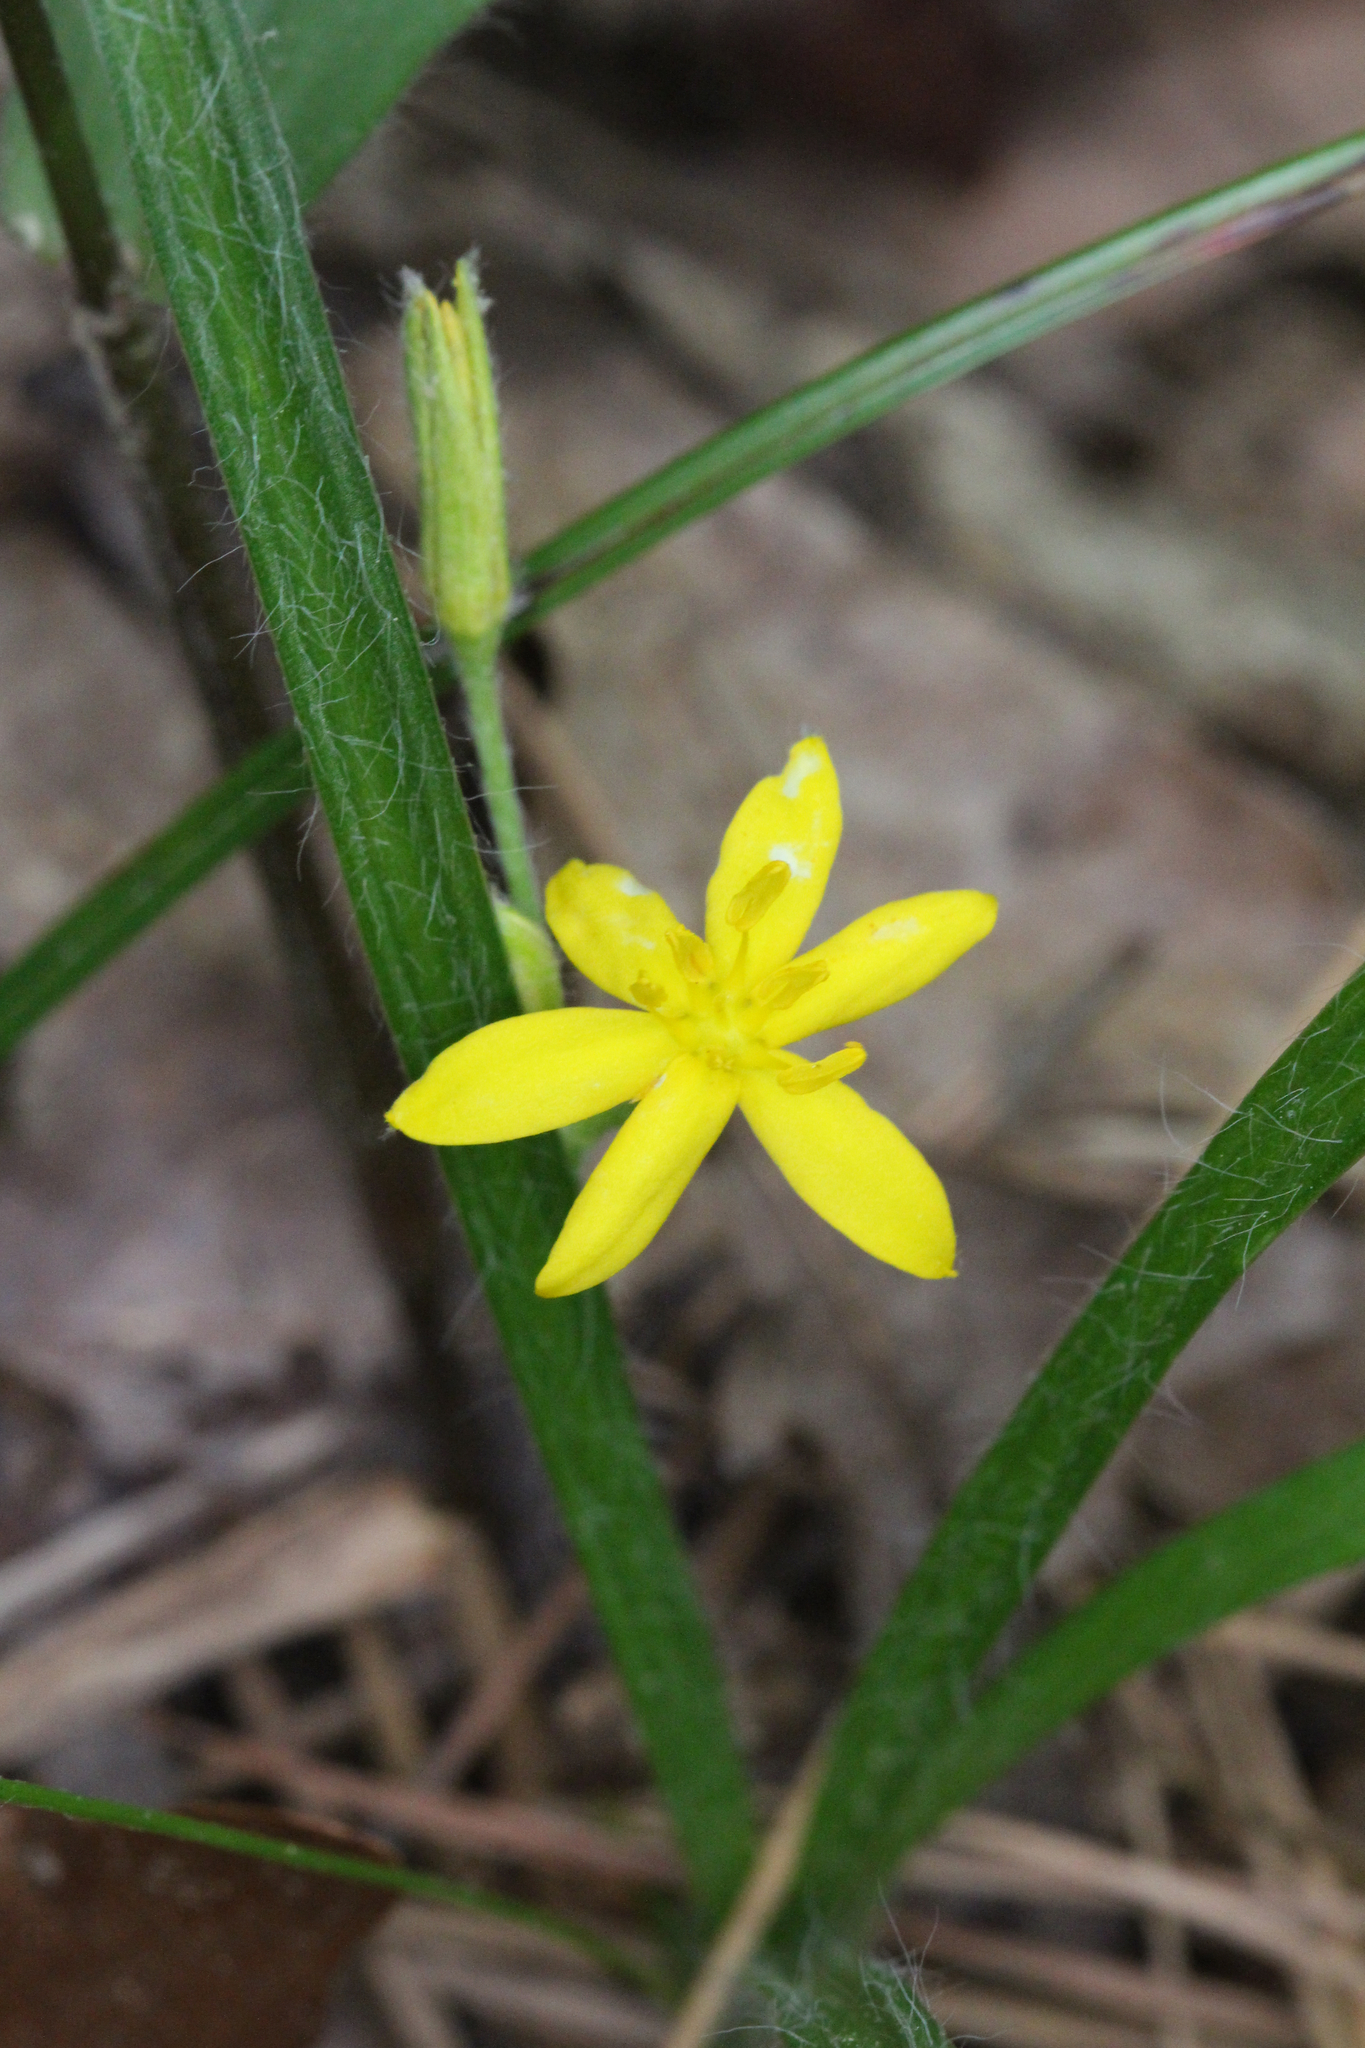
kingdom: Plantae
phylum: Tracheophyta
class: Liliopsida
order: Asparagales
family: Hypoxidaceae
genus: Hypoxis
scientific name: Hypoxis hirsuta
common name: Common goldstar
